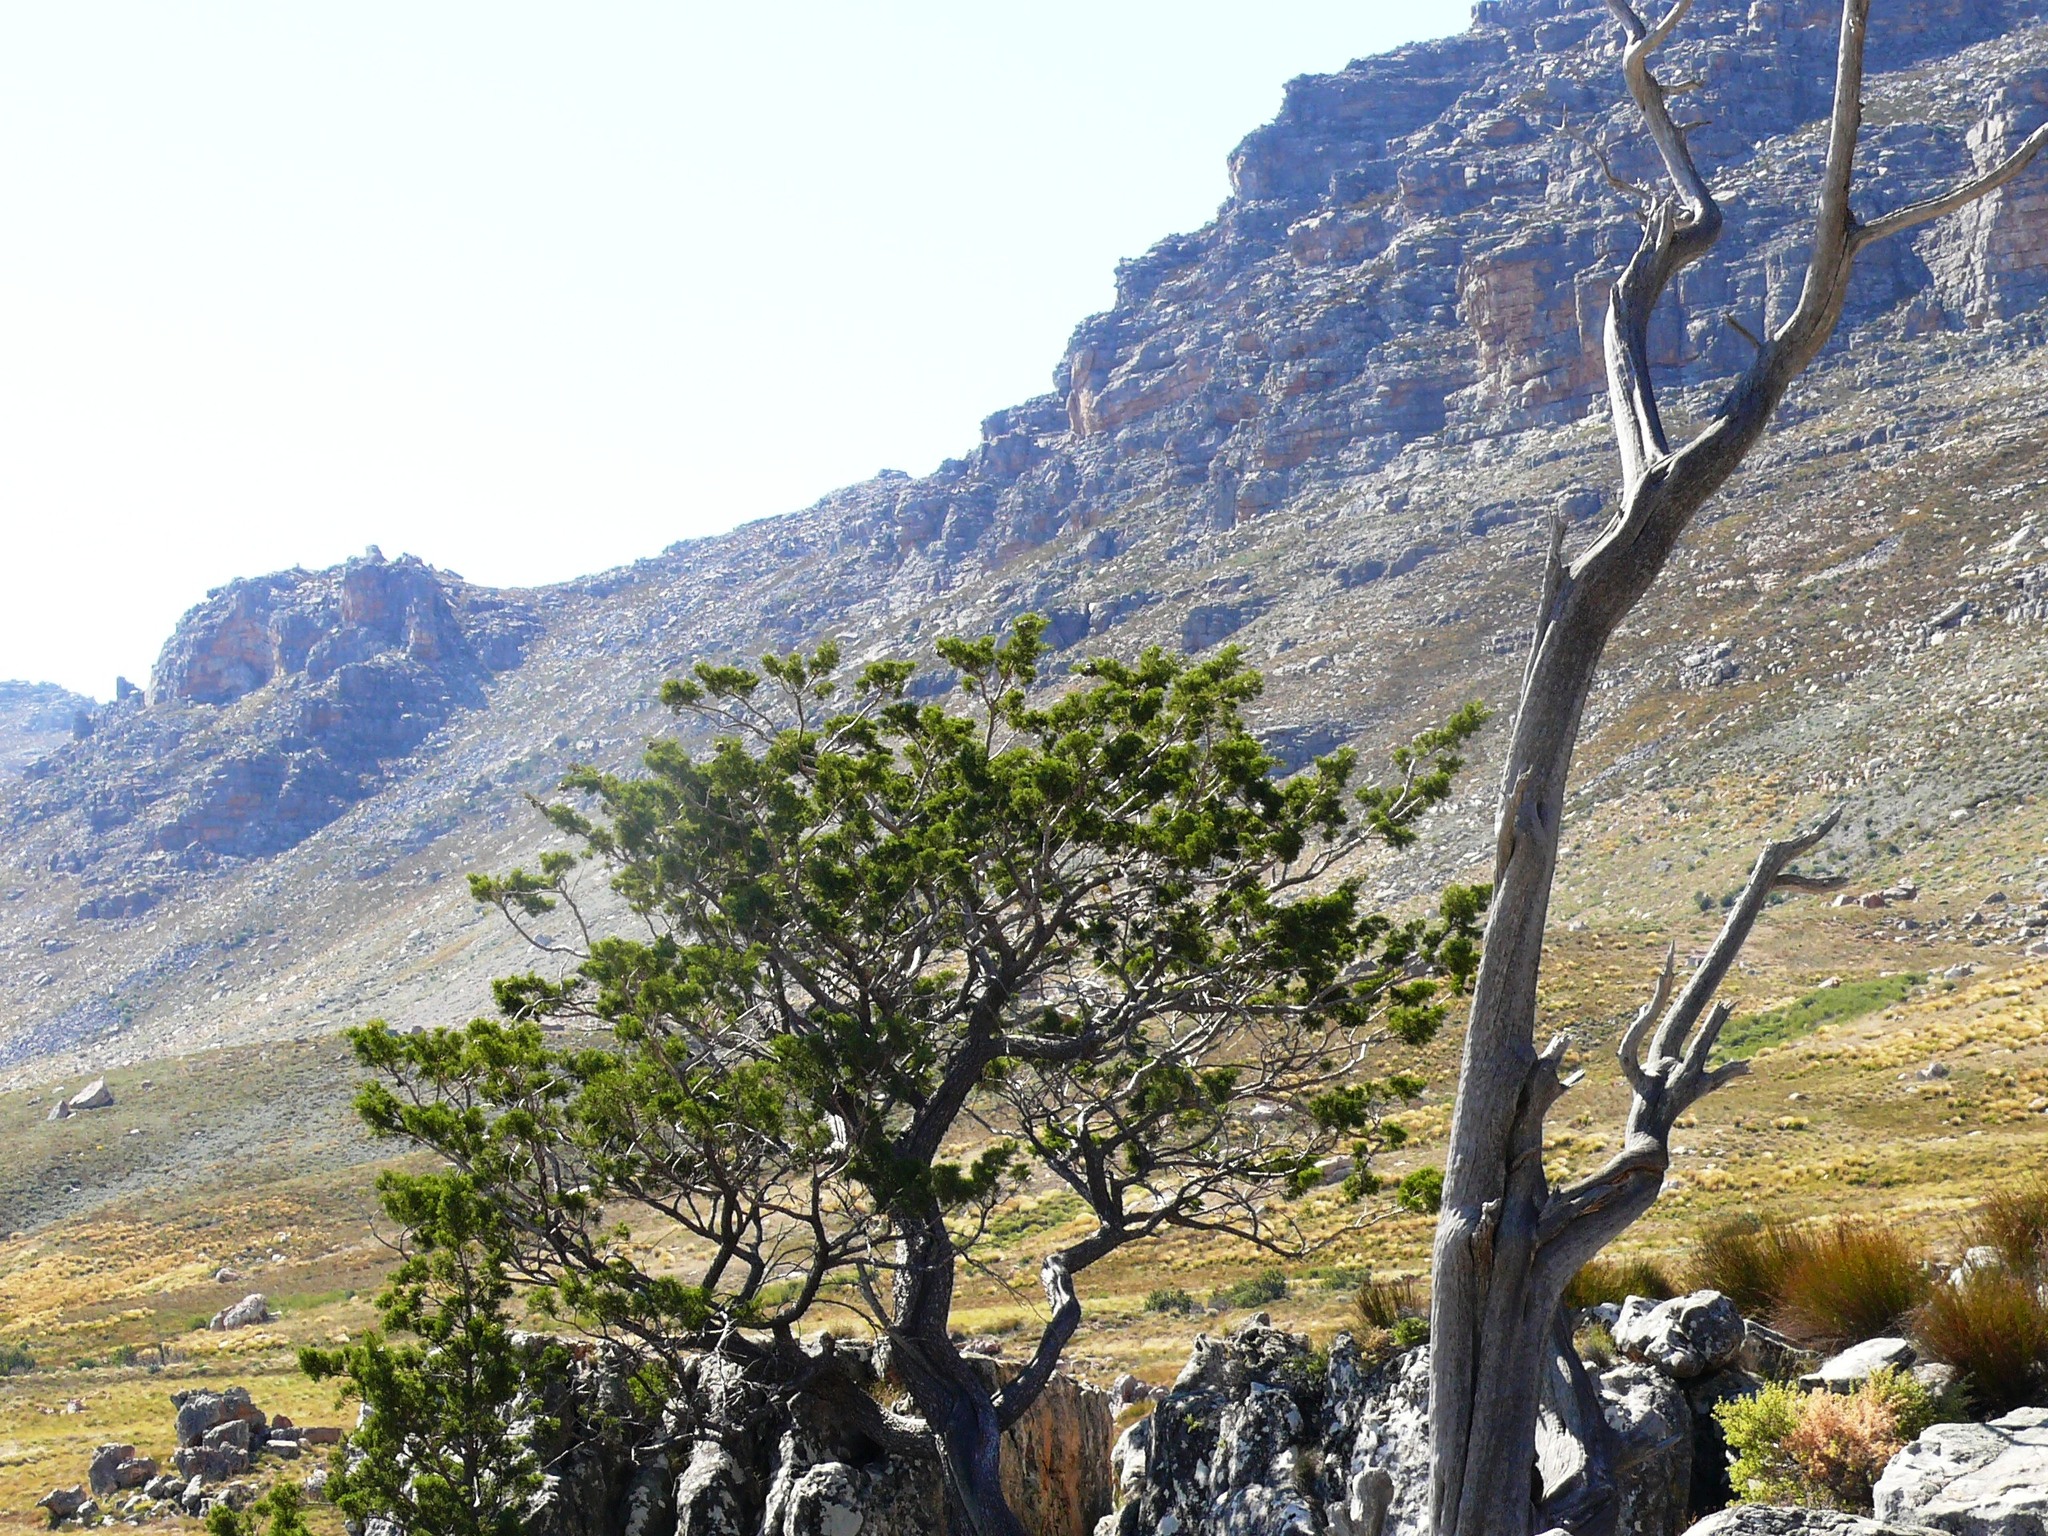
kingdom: Plantae
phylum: Tracheophyta
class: Pinopsida
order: Pinales
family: Cupressaceae
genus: Widdringtonia
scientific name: Widdringtonia nodiflora
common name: Cape cypress
